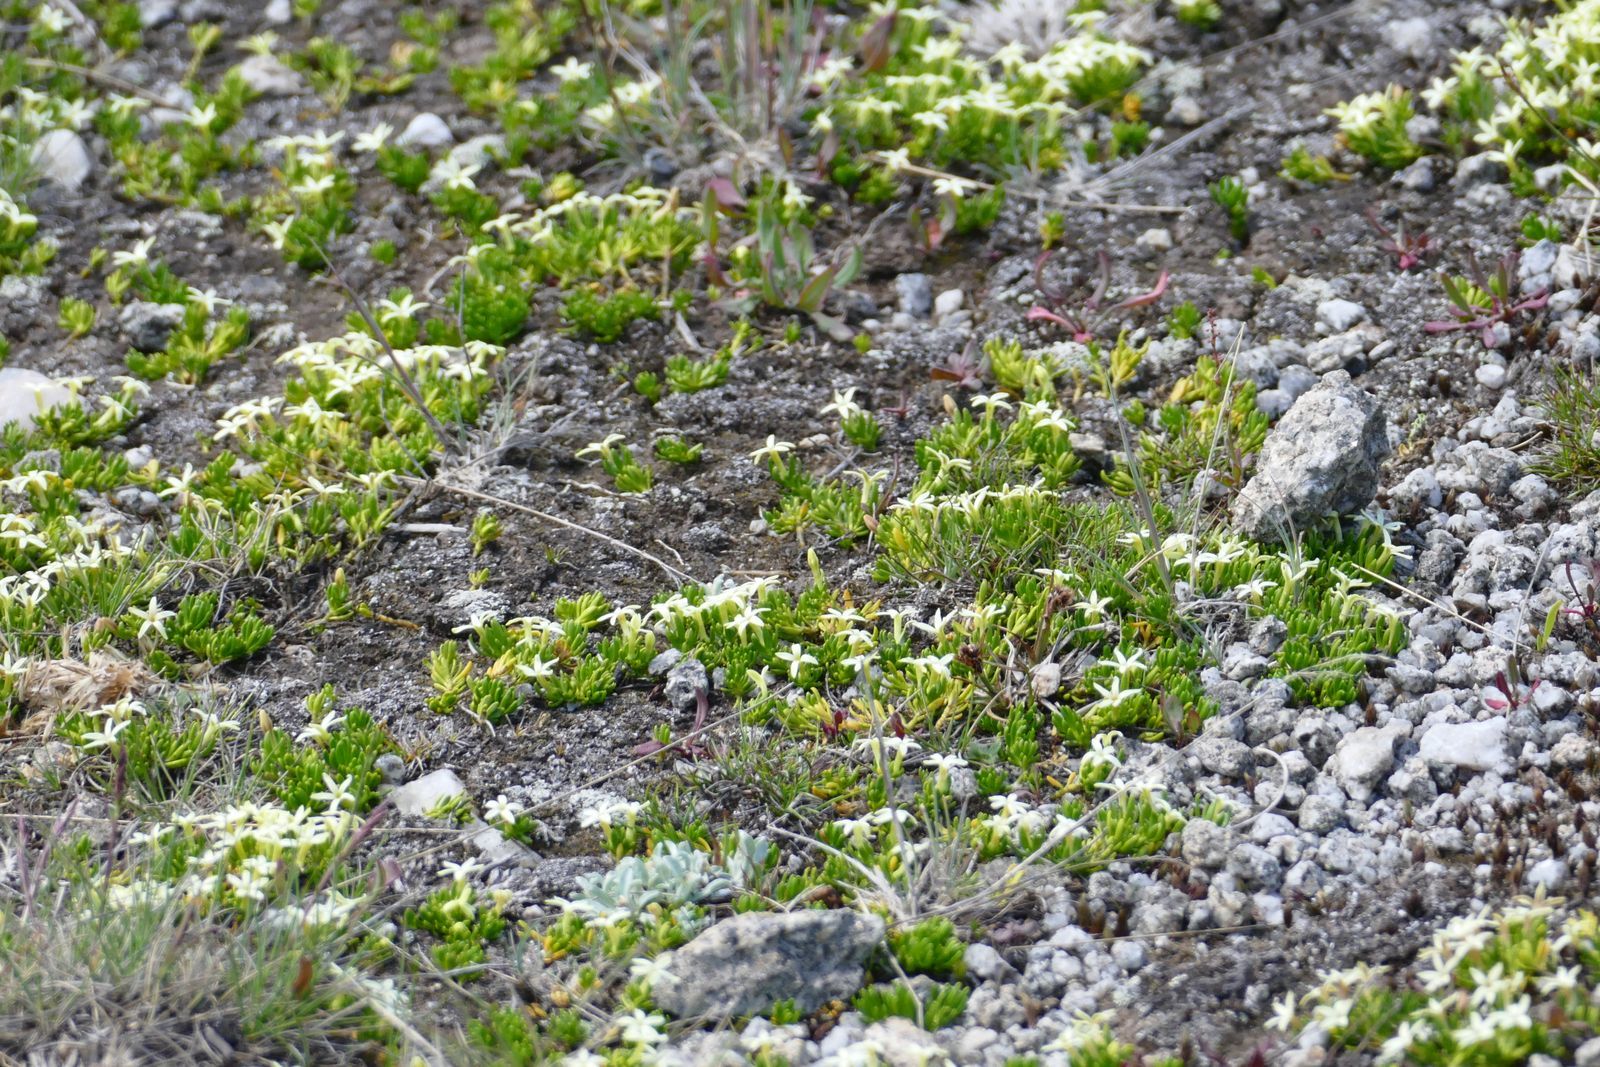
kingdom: Plantae
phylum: Tracheophyta
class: Magnoliopsida
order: Celastrales
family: Celastraceae
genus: Stackhousia
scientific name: Stackhousia pulvinaris
